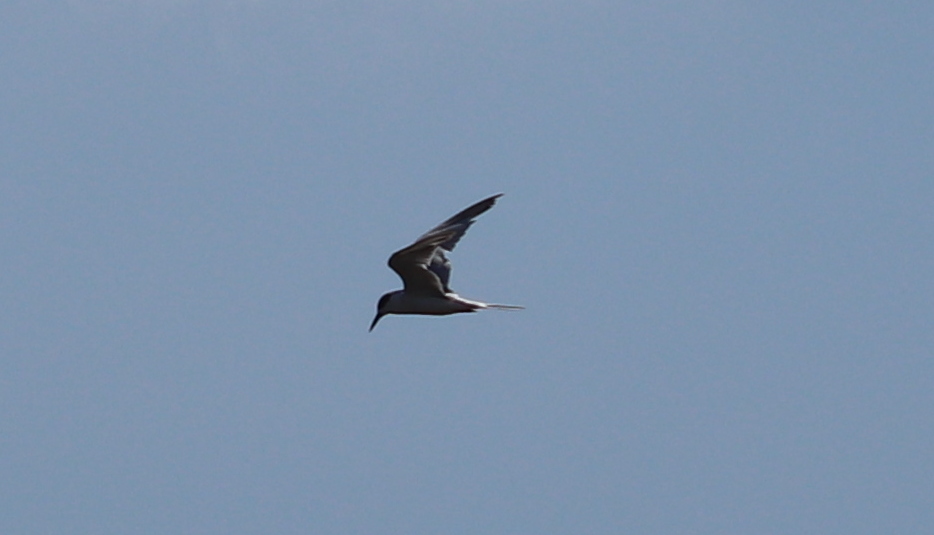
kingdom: Animalia
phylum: Chordata
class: Aves
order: Charadriiformes
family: Laridae
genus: Sterna
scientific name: Sterna forsteri
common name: Forster's tern
